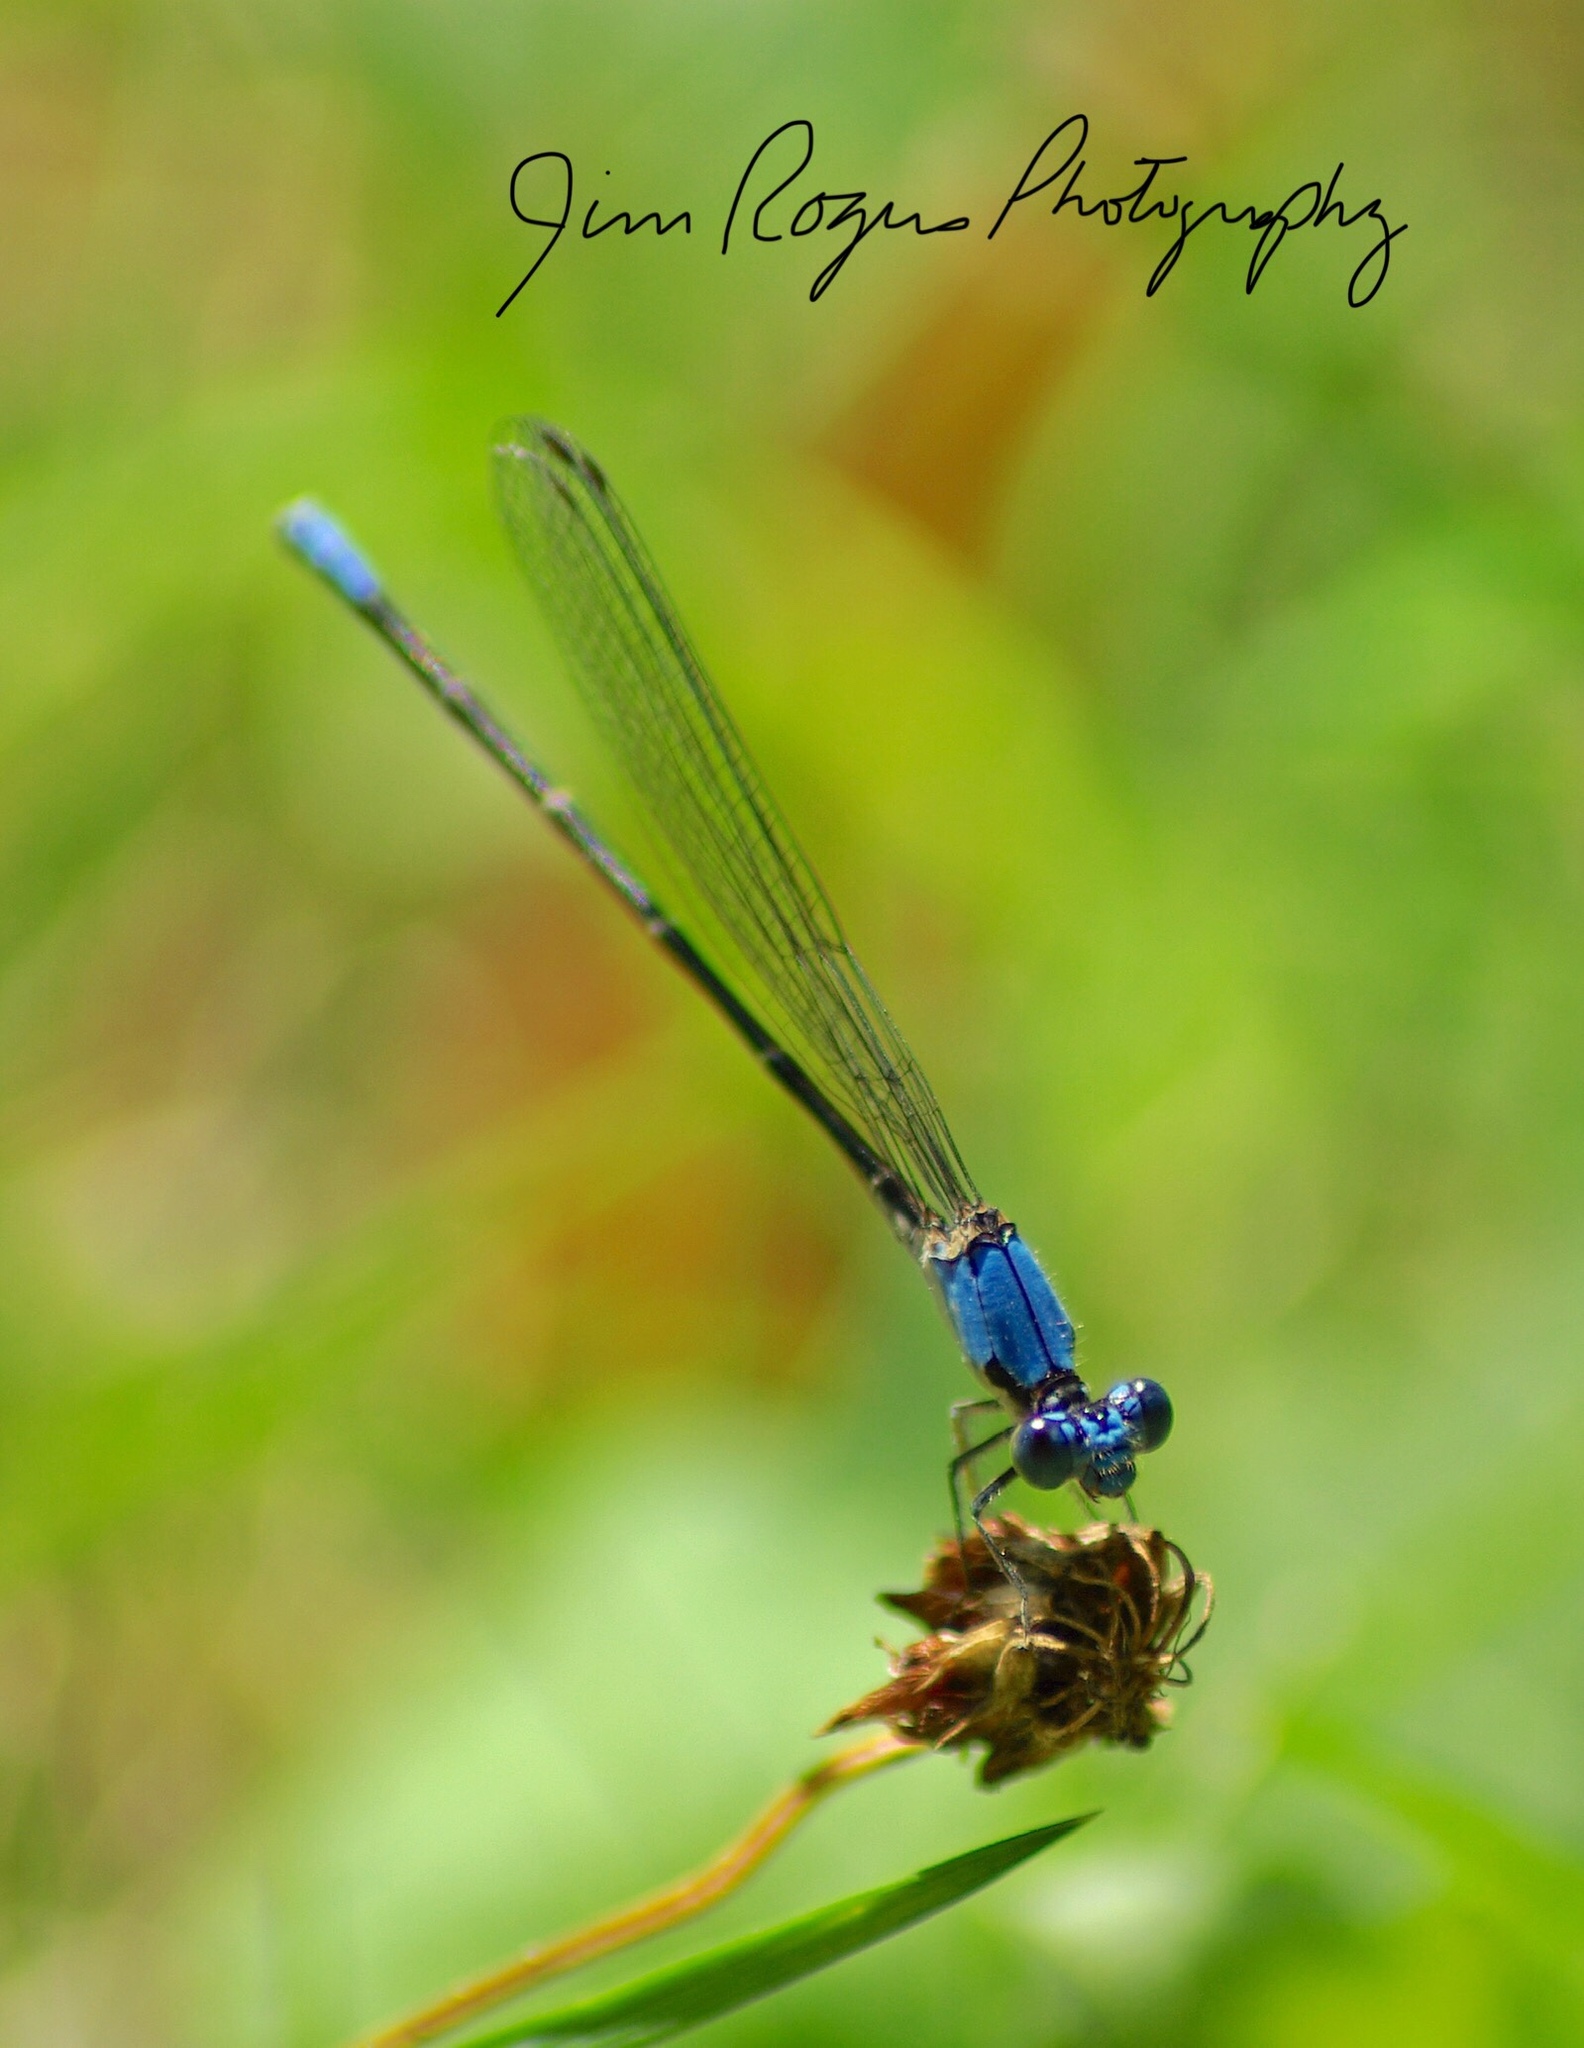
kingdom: Animalia
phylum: Arthropoda
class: Insecta
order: Odonata
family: Coenagrionidae
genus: Argia
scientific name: Argia apicalis
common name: Blue-fronted dancer
